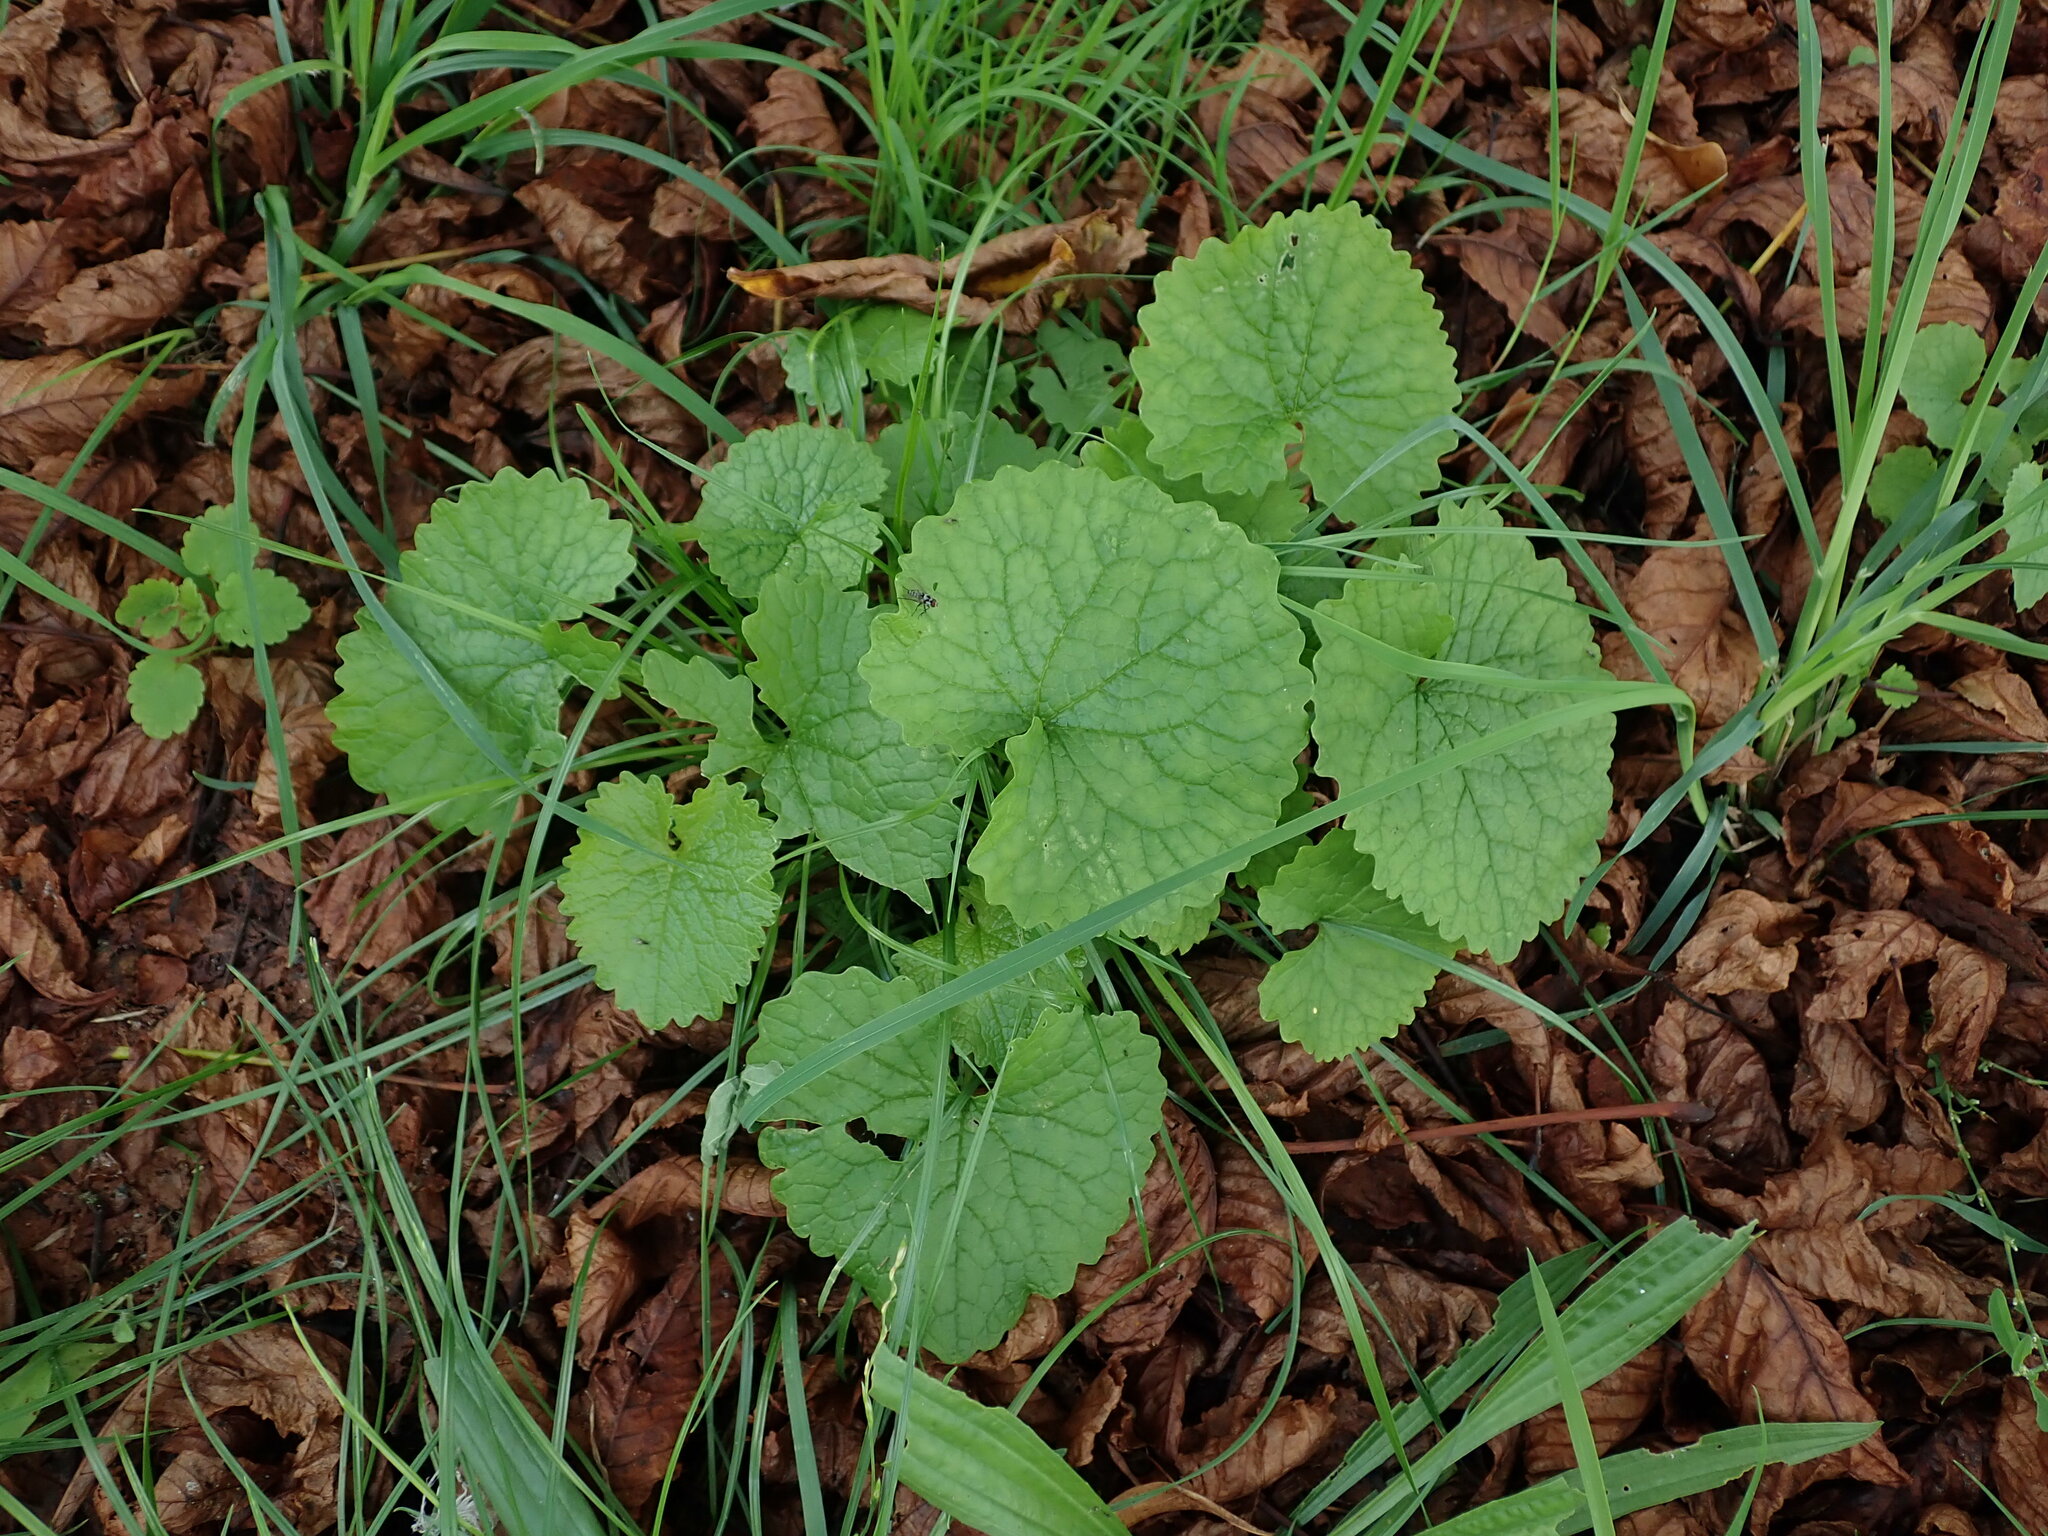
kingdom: Plantae
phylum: Tracheophyta
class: Magnoliopsida
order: Brassicales
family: Brassicaceae
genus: Alliaria
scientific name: Alliaria petiolata
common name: Garlic mustard
